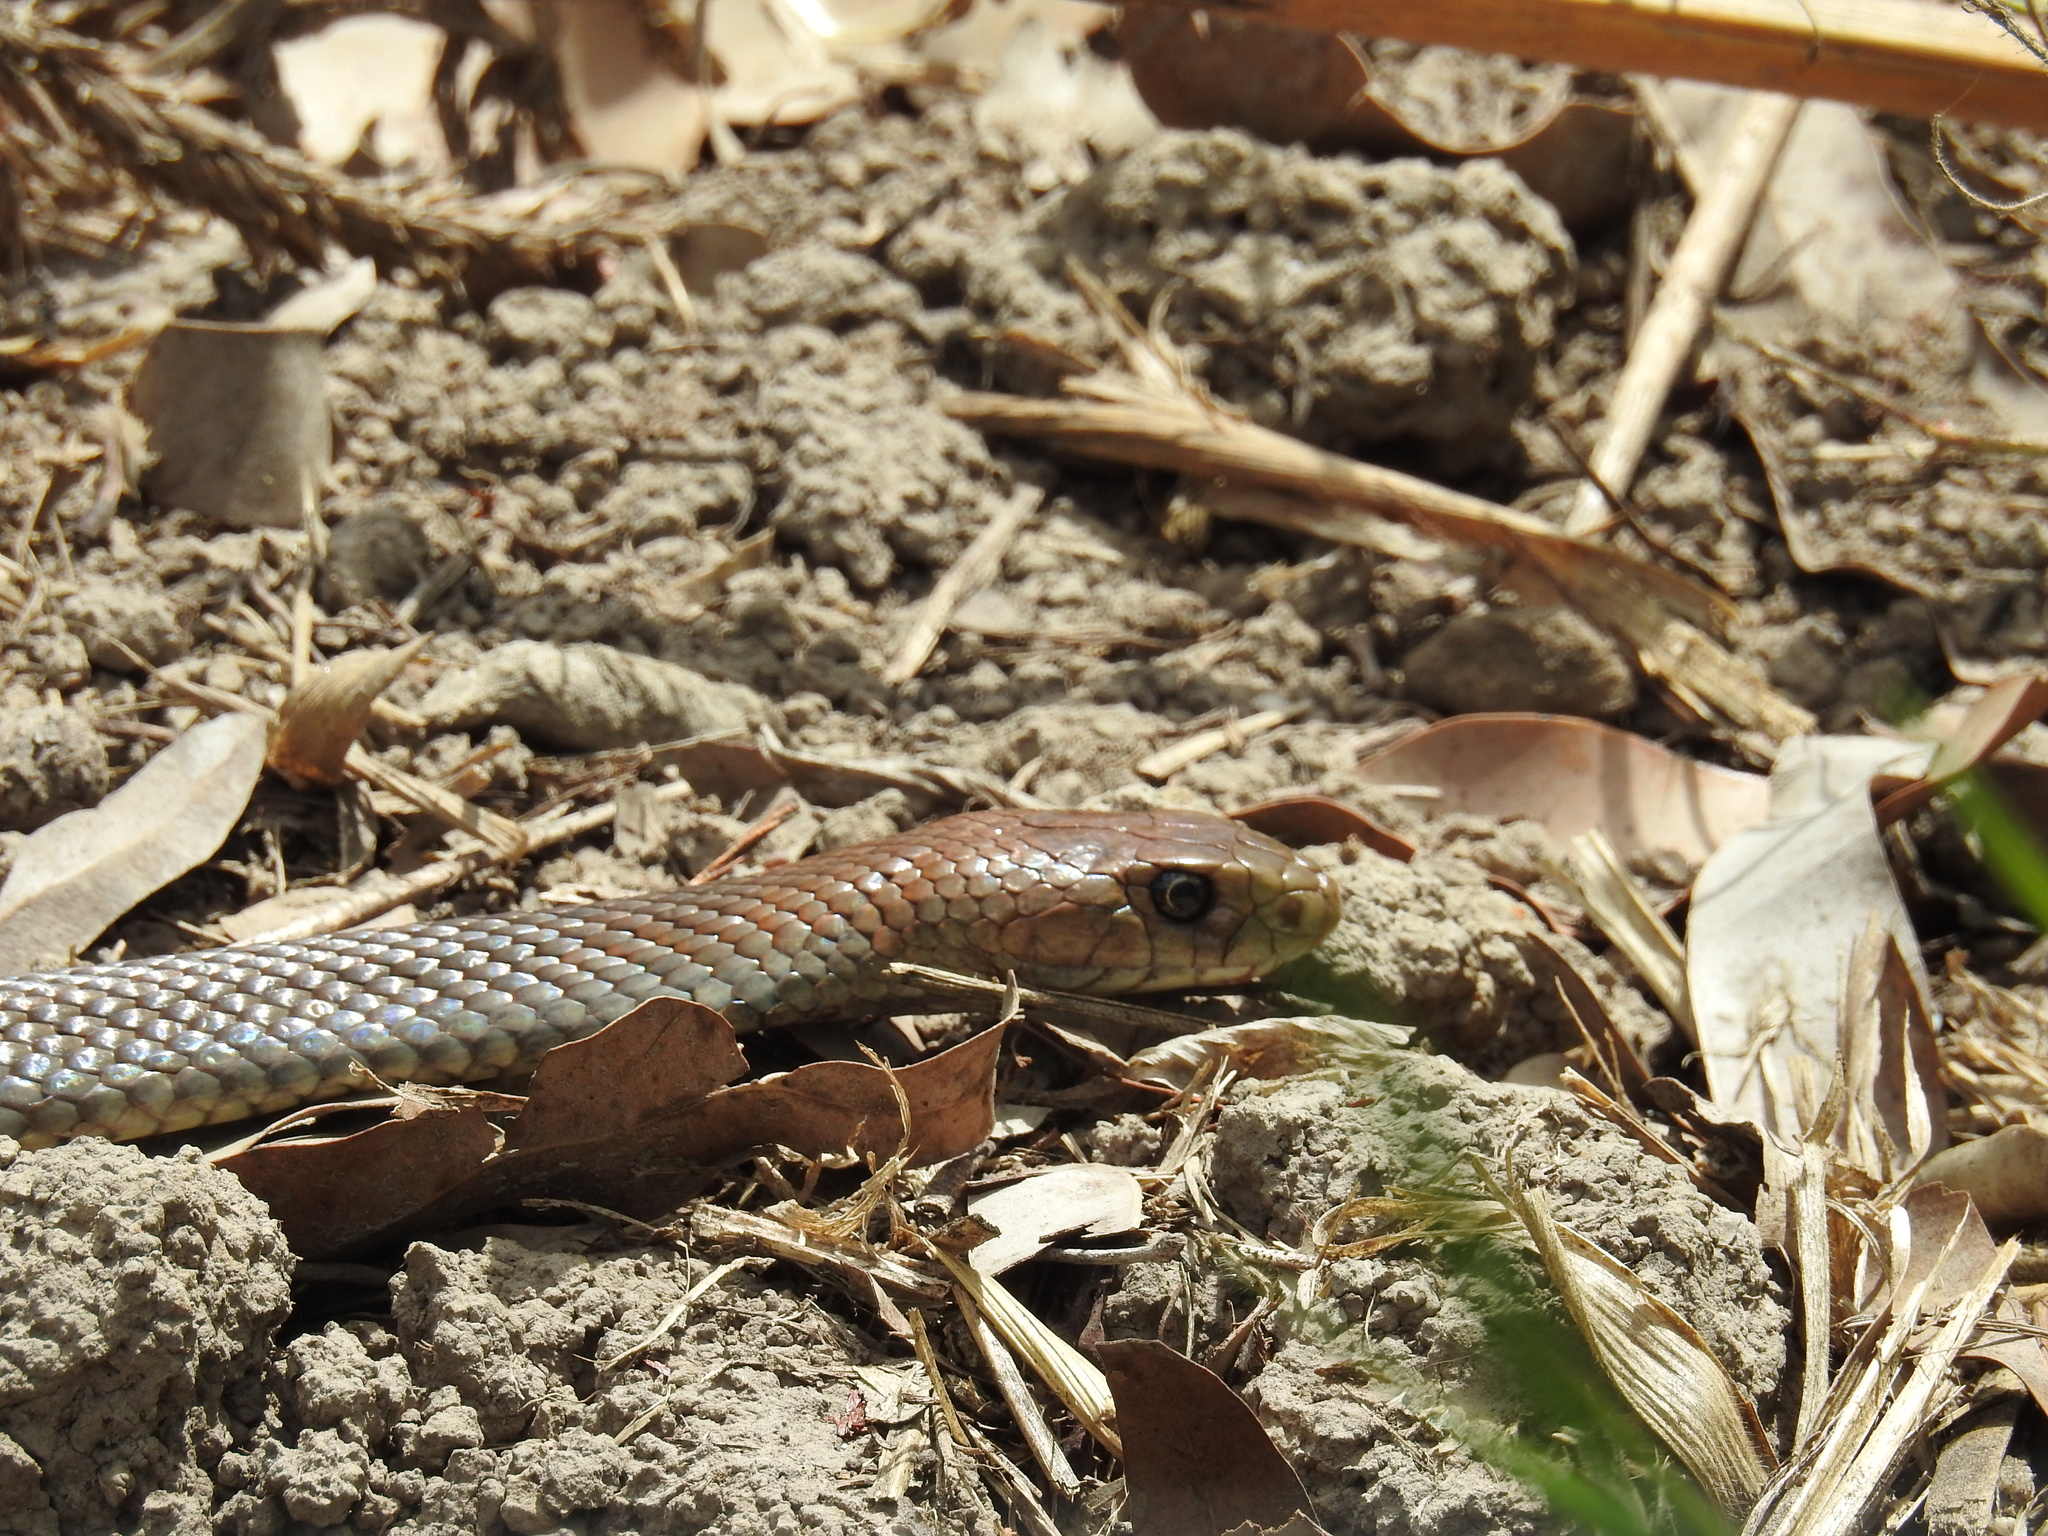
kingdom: Animalia
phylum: Chordata
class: Squamata
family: Elapidae
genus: Pseudonaja
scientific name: Pseudonaja textilis
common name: Eastern brown snake
